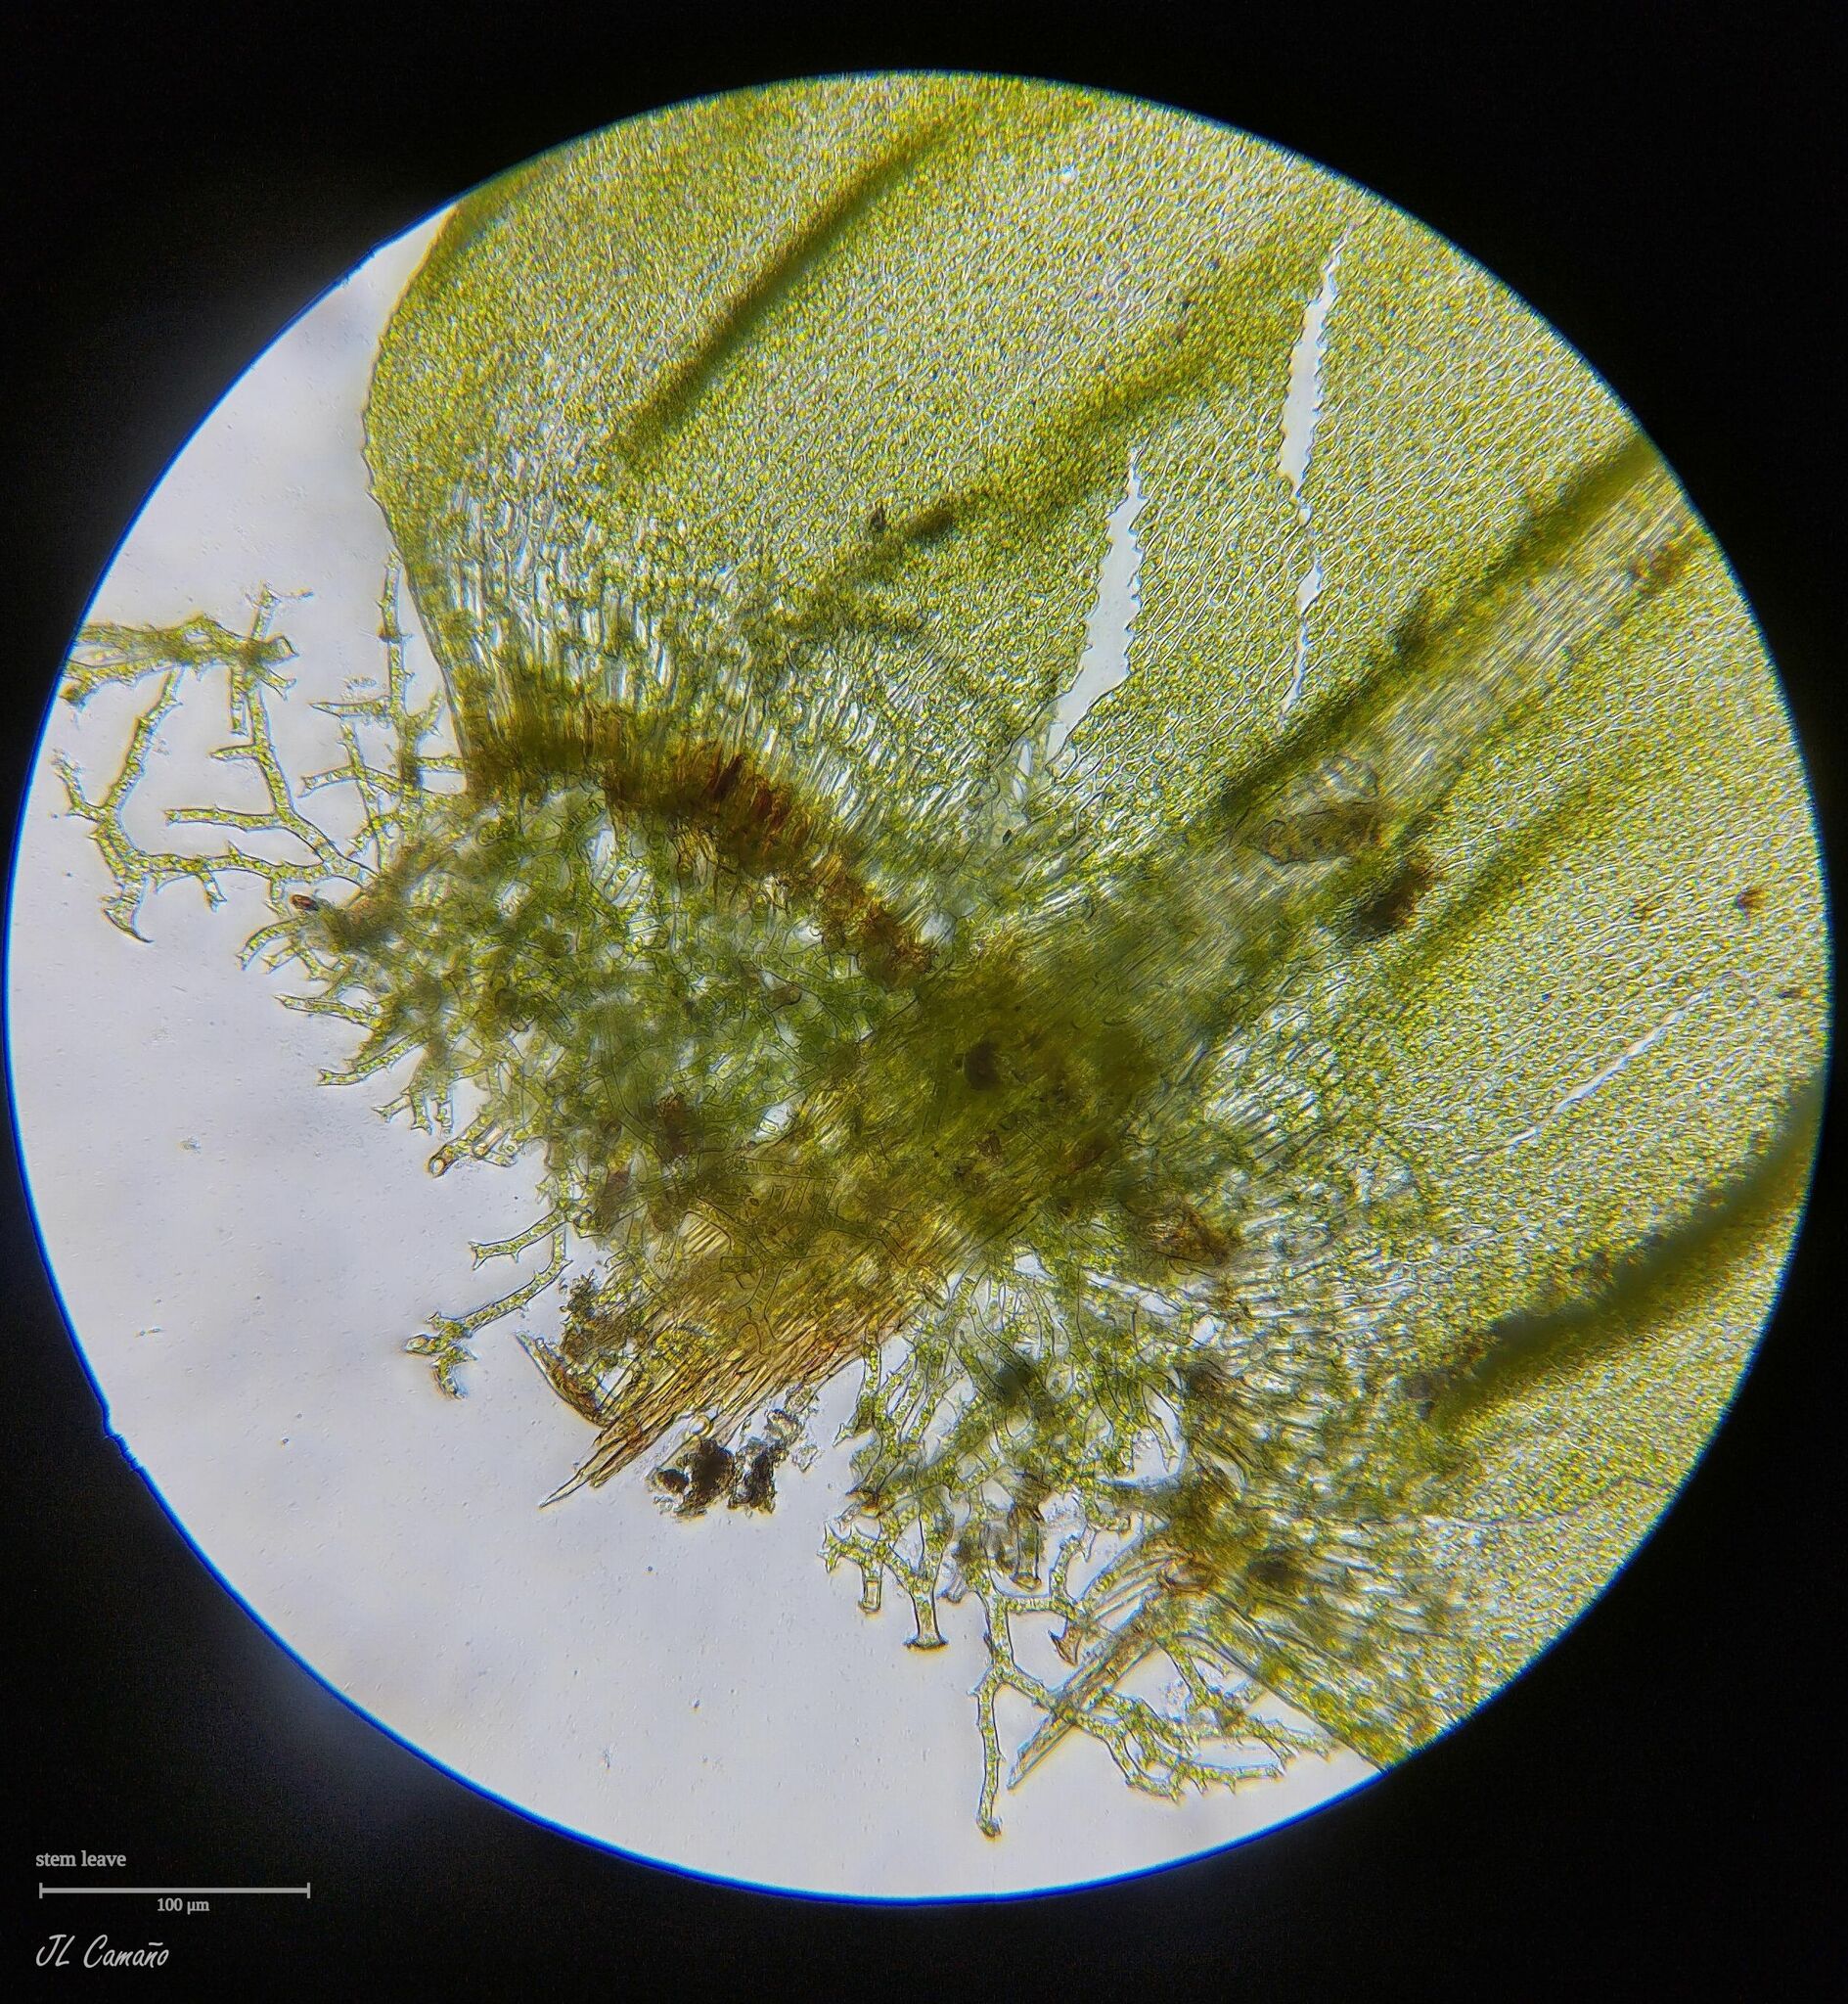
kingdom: Plantae
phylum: Bryophyta
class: Bryopsida
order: Hypnales
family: Thuidiaceae
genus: Thuidium
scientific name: Thuidium tamariscinum
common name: Common tamarisk-moss
